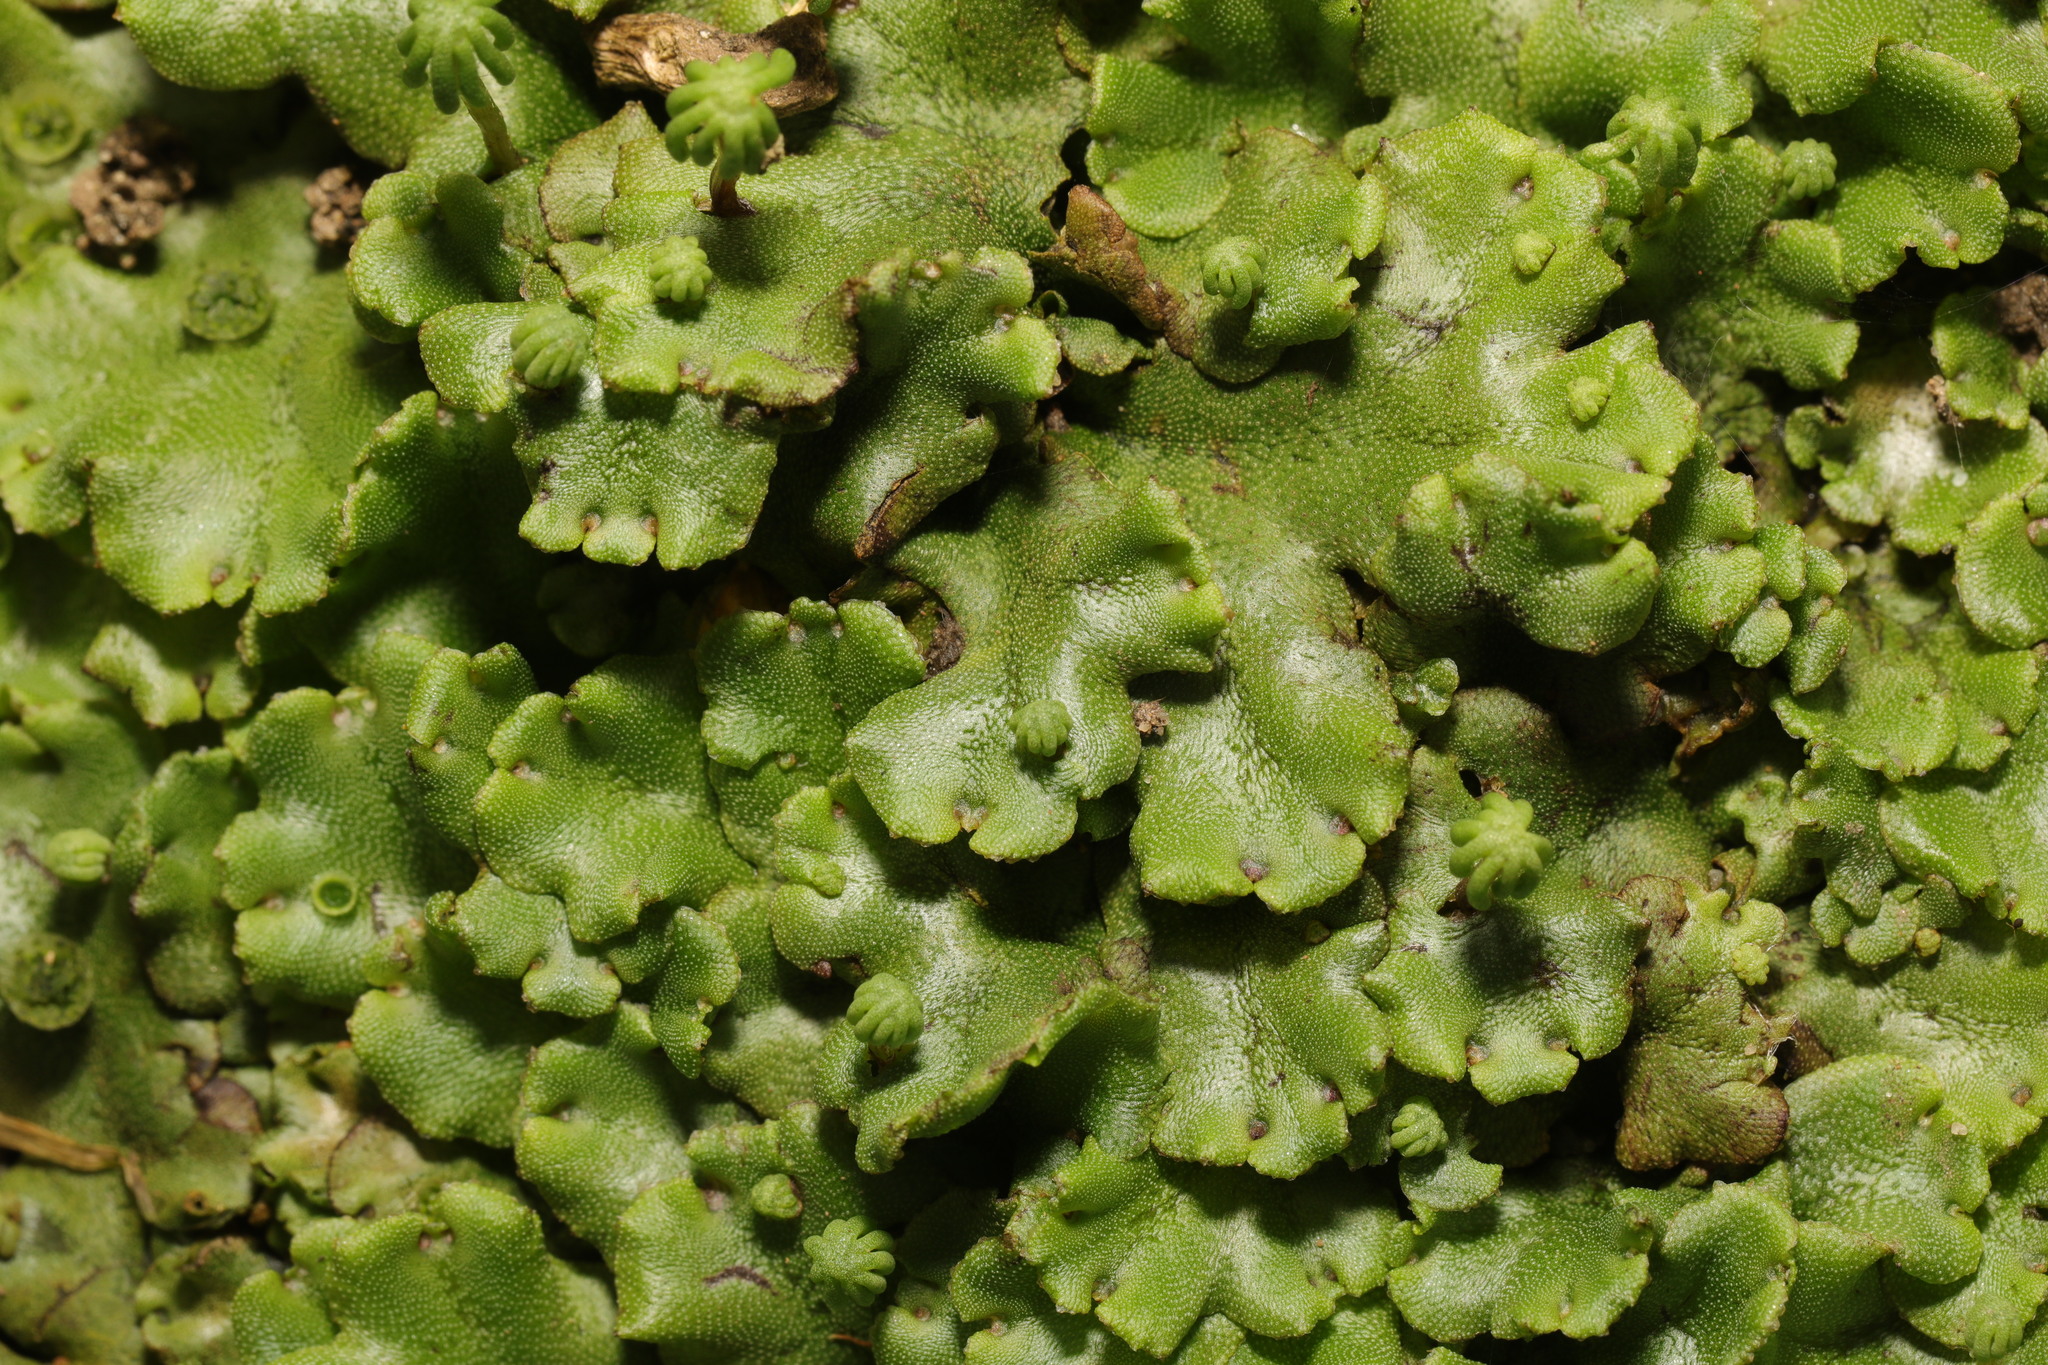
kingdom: Plantae
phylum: Marchantiophyta
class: Marchantiopsida
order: Marchantiales
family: Marchantiaceae
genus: Marchantia
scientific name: Marchantia polymorpha
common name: Common liverwort
